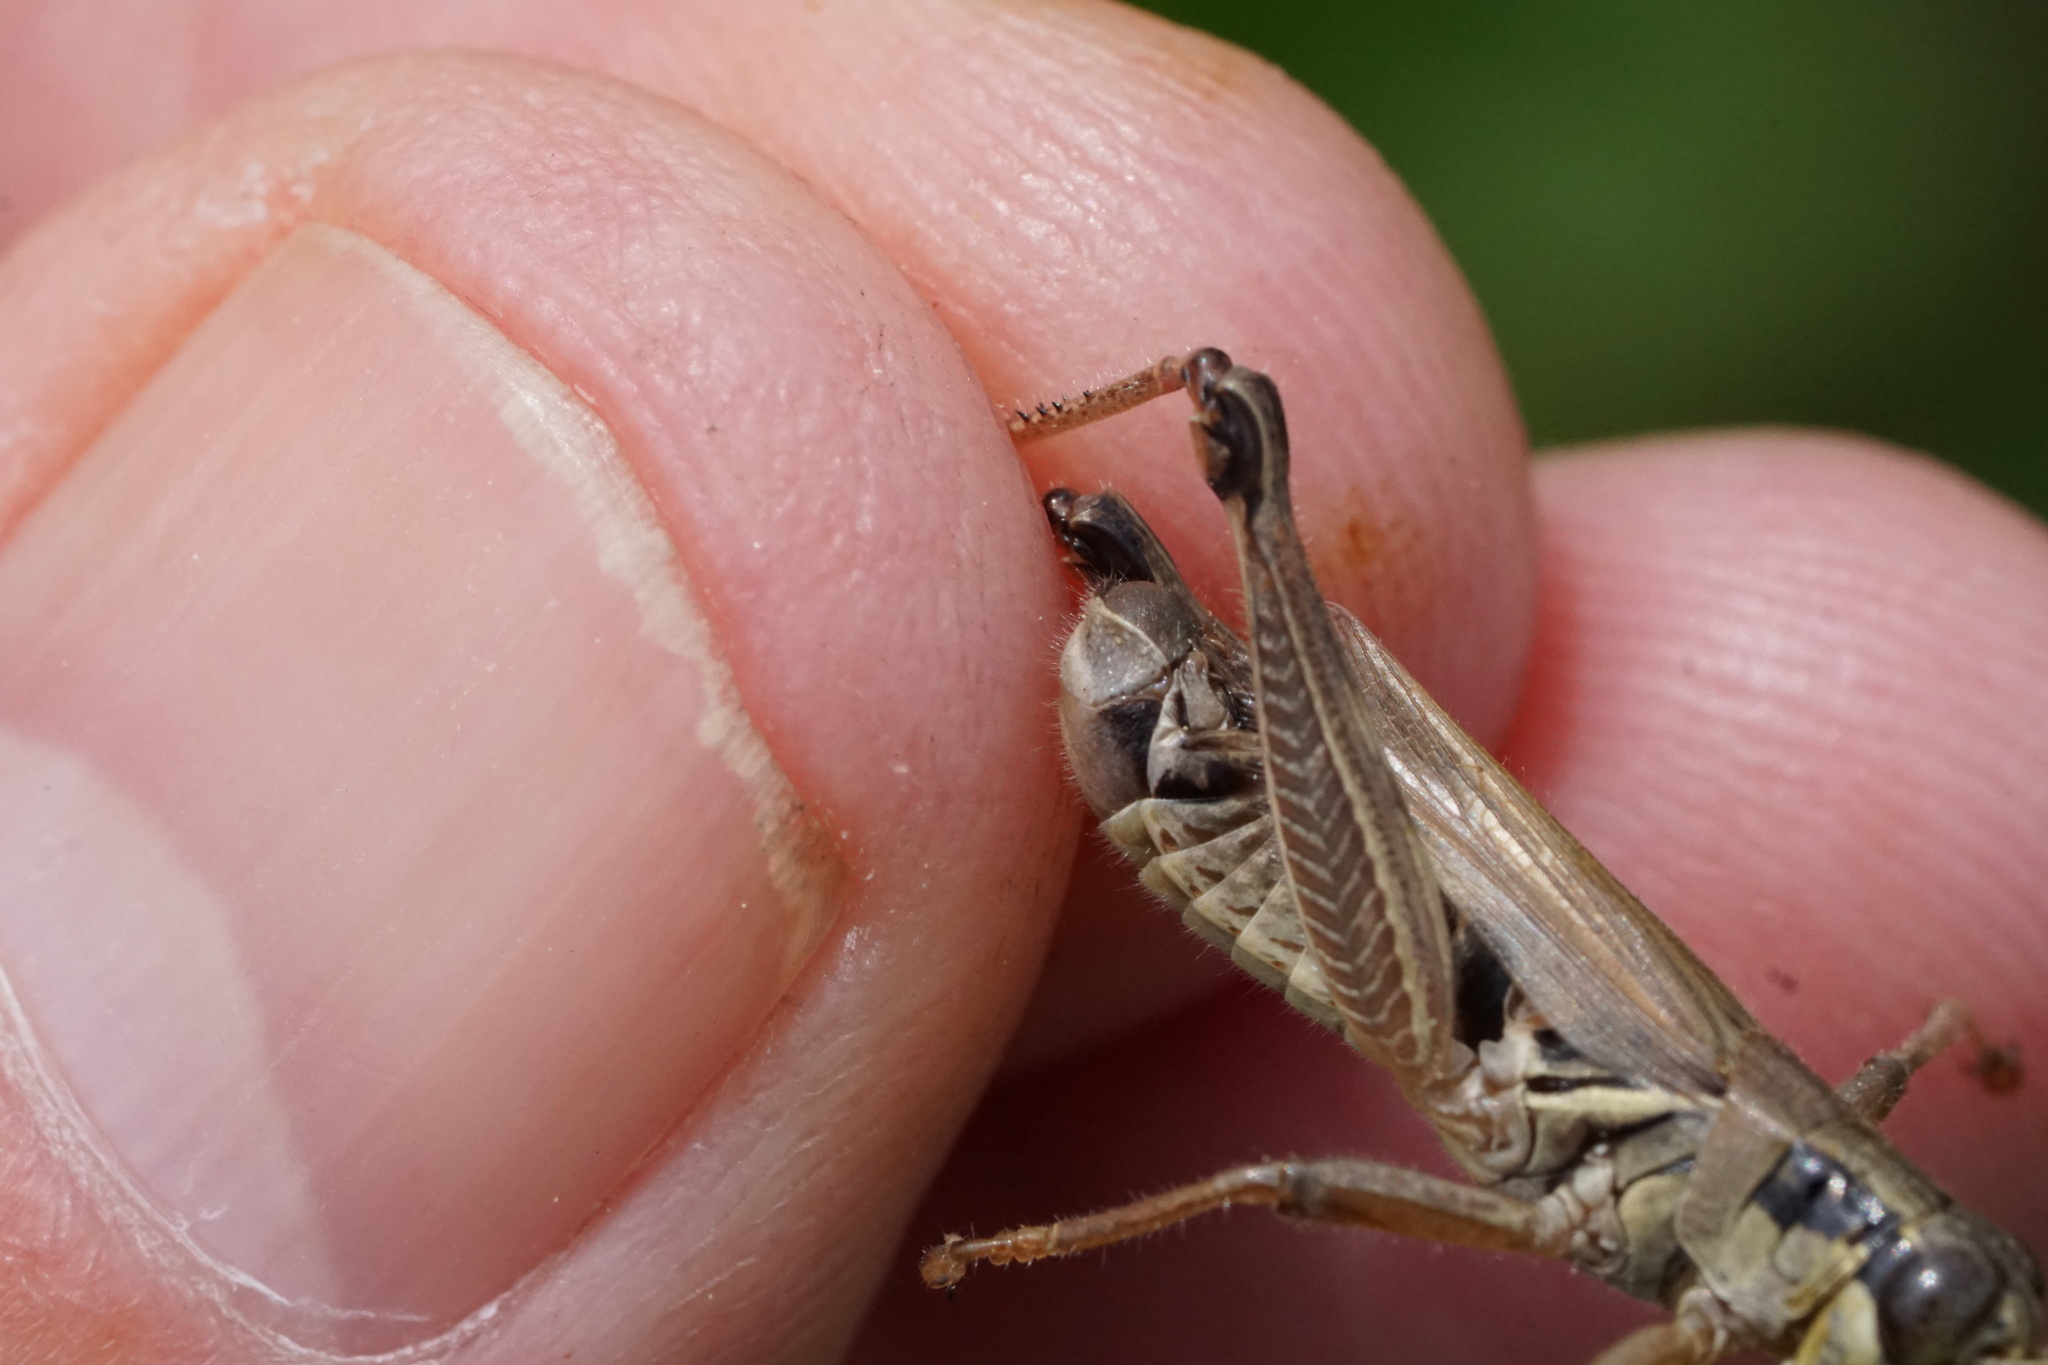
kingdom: Animalia
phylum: Arthropoda
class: Insecta
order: Orthoptera
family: Acrididae
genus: Melanoplus
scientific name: Melanoplus borealis
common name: Northern grasshopper
